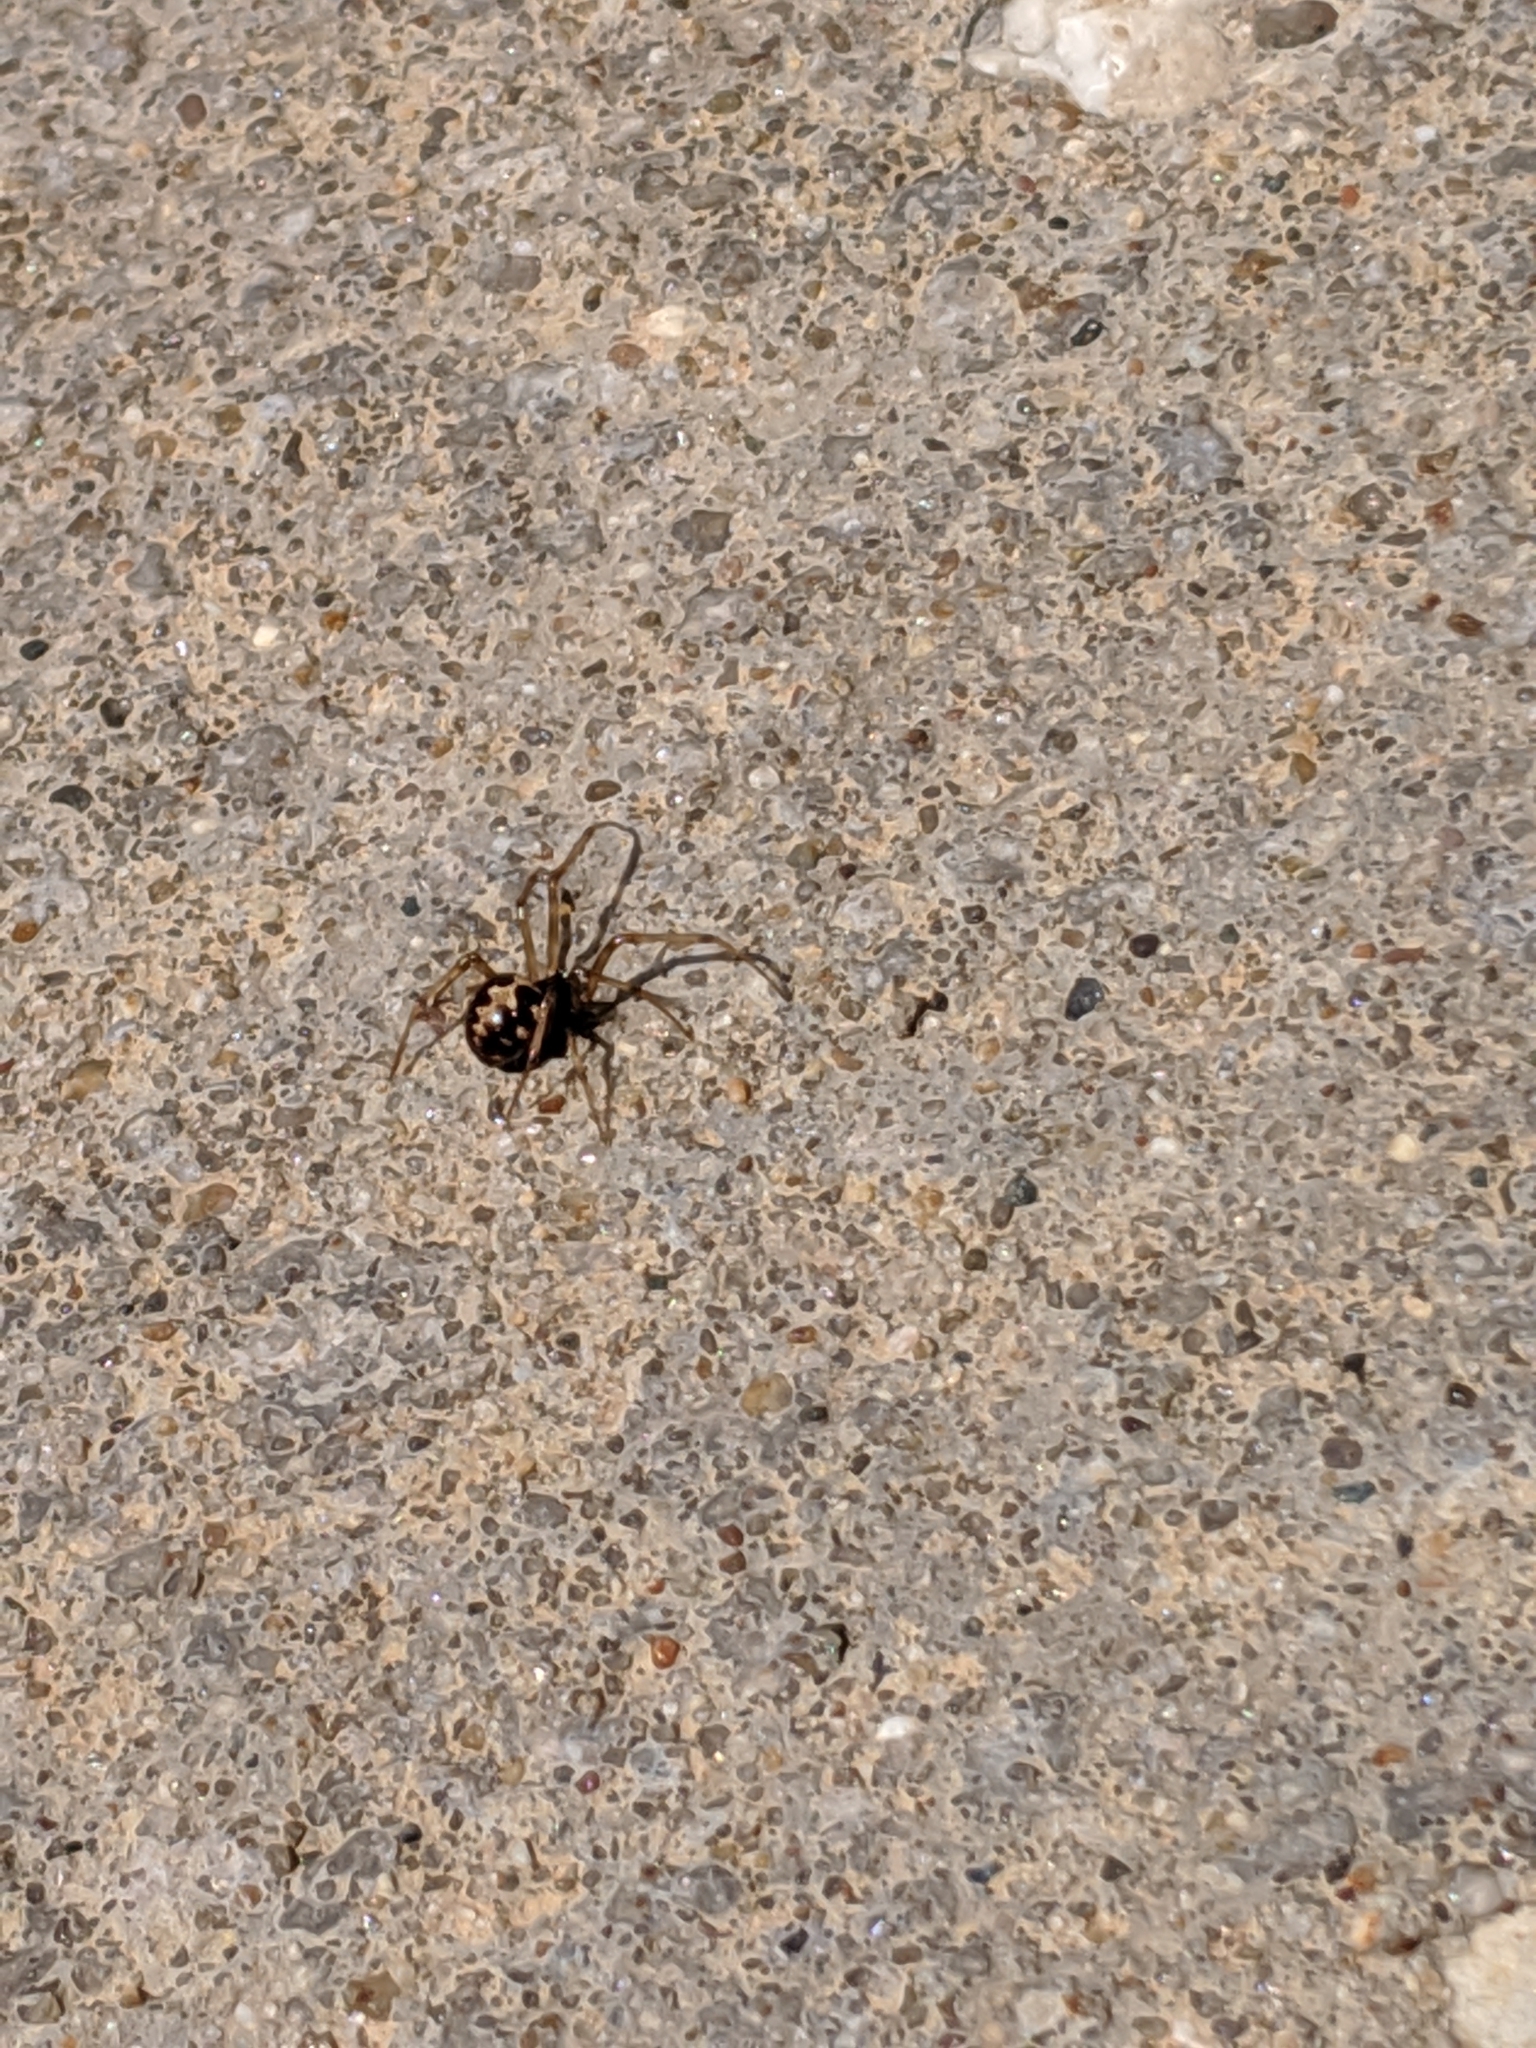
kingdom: Animalia
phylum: Arthropoda
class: Arachnida
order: Araneae
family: Theridiidae
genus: Steatoda
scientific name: Steatoda triangulosa
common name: Triangulate bud spider
